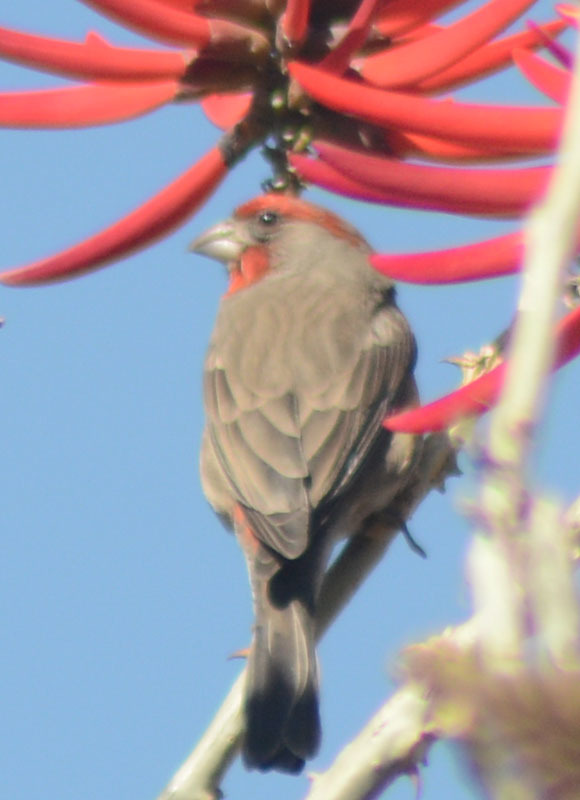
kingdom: Animalia
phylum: Chordata
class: Aves
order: Passeriformes
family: Fringillidae
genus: Haemorhous
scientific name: Haemorhous mexicanus
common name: House finch
